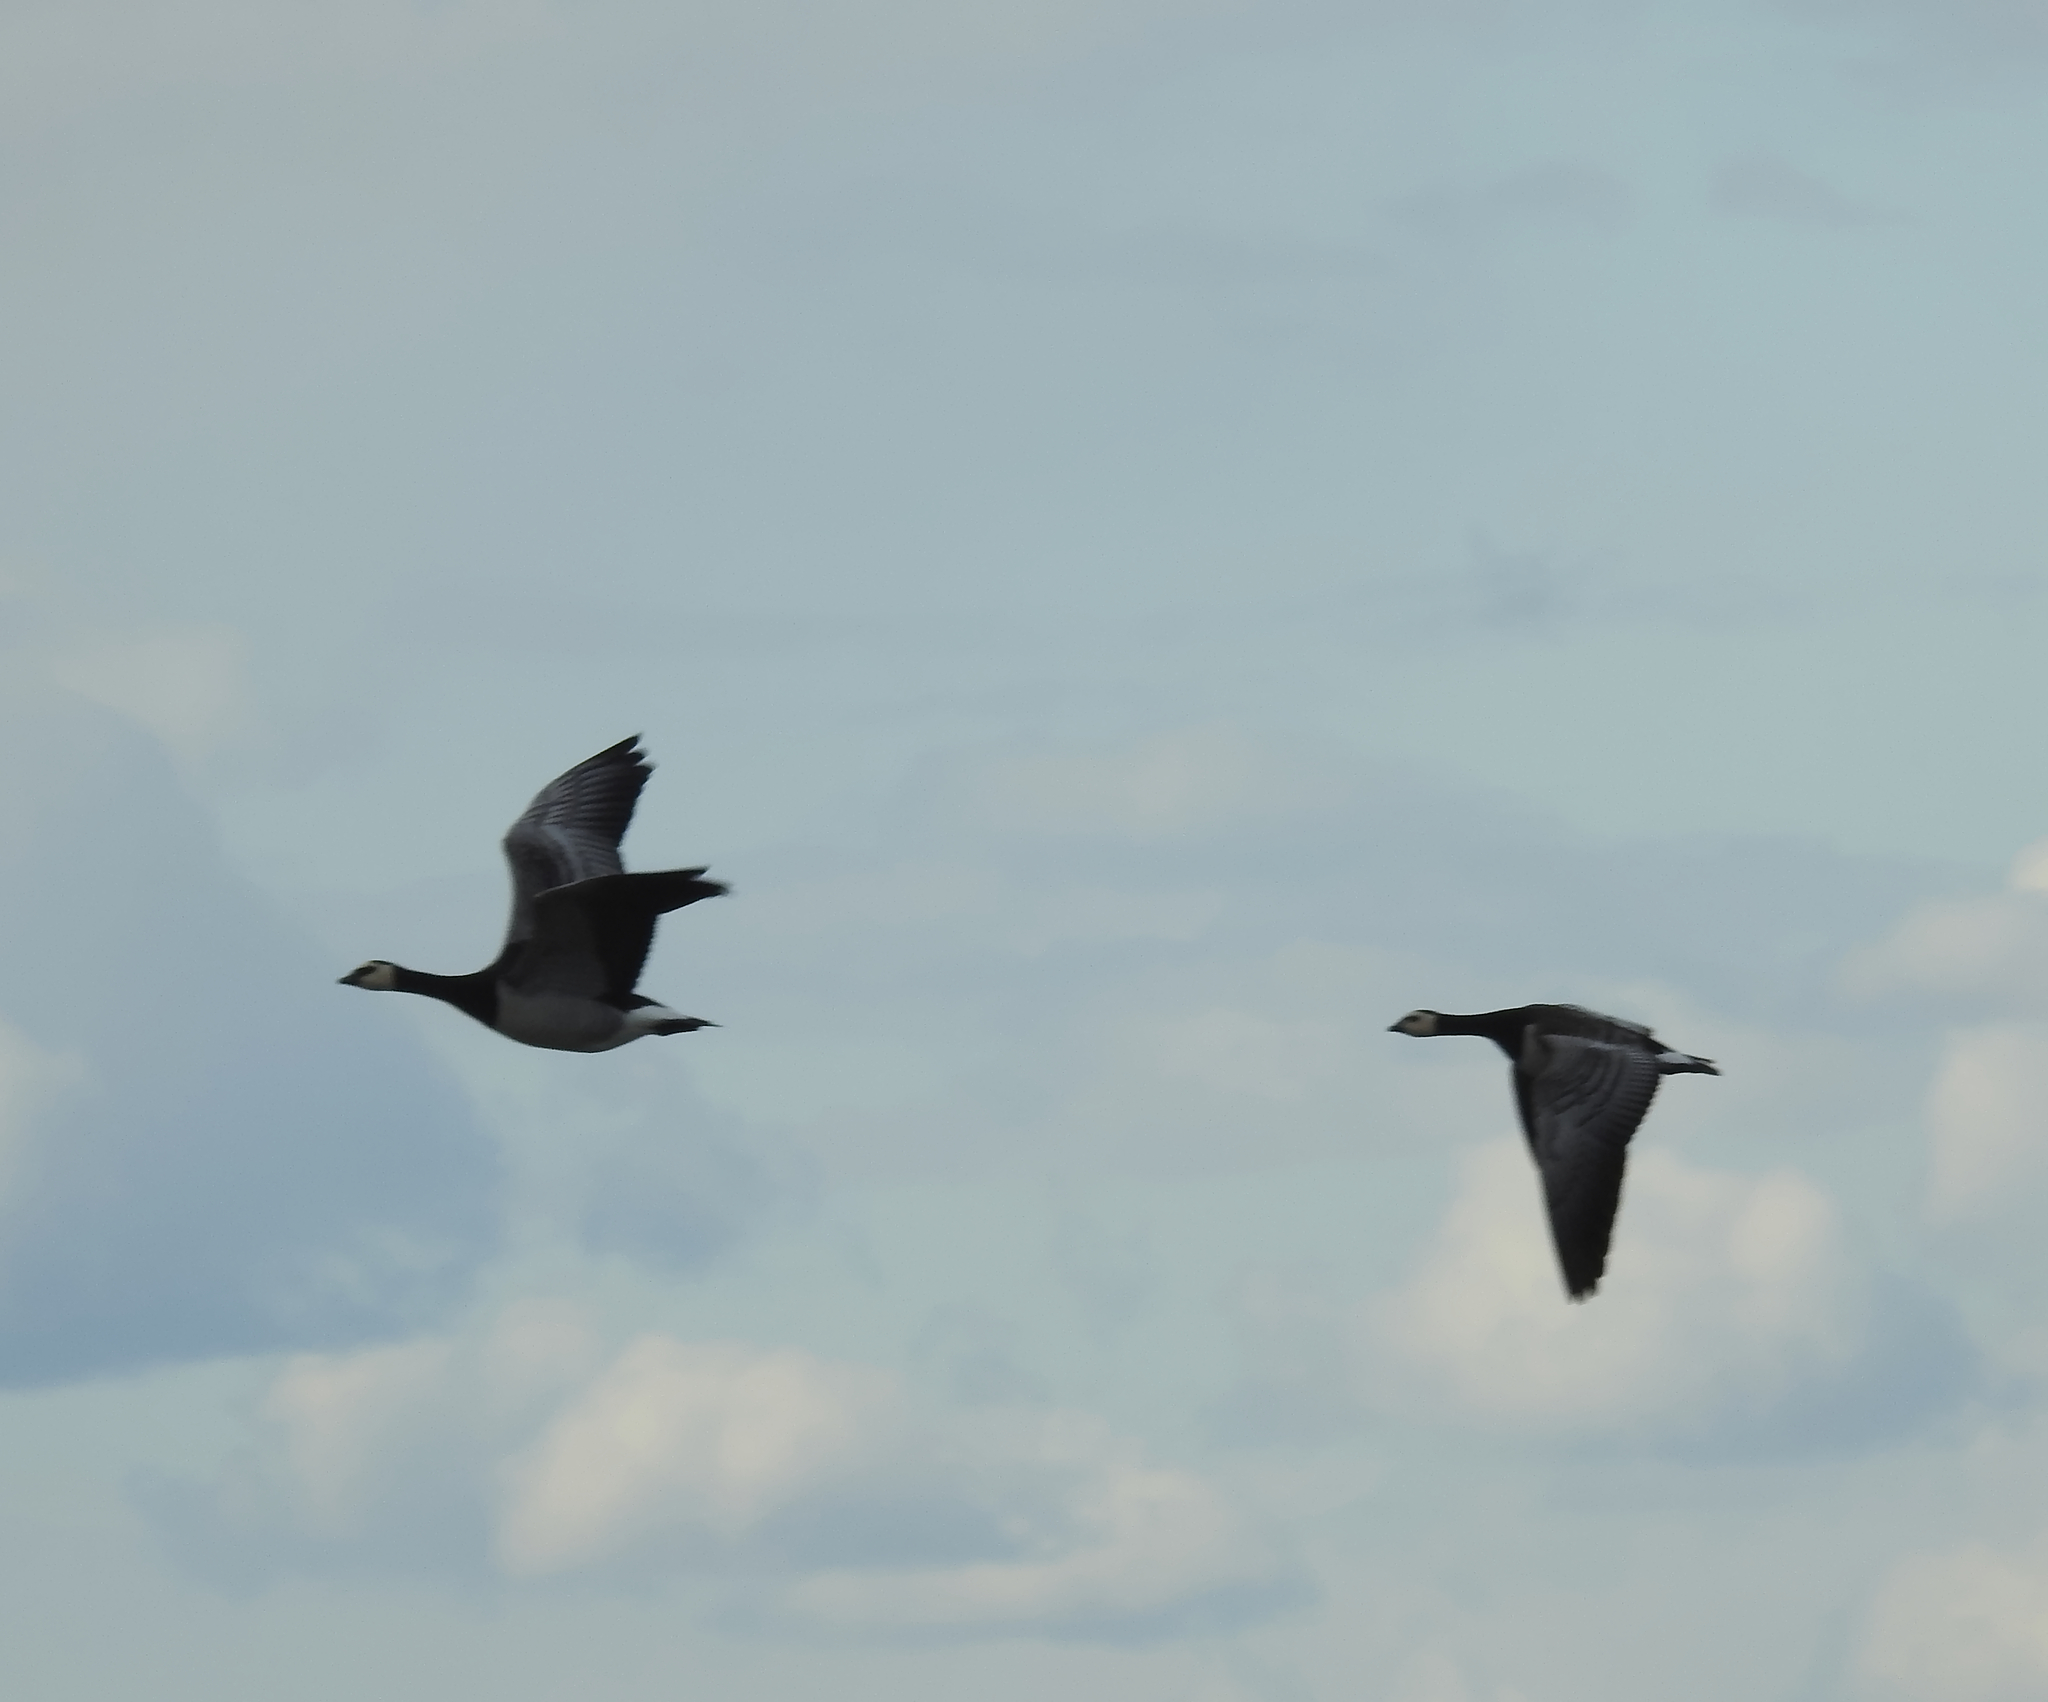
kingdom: Animalia
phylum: Chordata
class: Aves
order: Anseriformes
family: Anatidae
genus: Branta
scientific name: Branta leucopsis
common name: Barnacle goose
